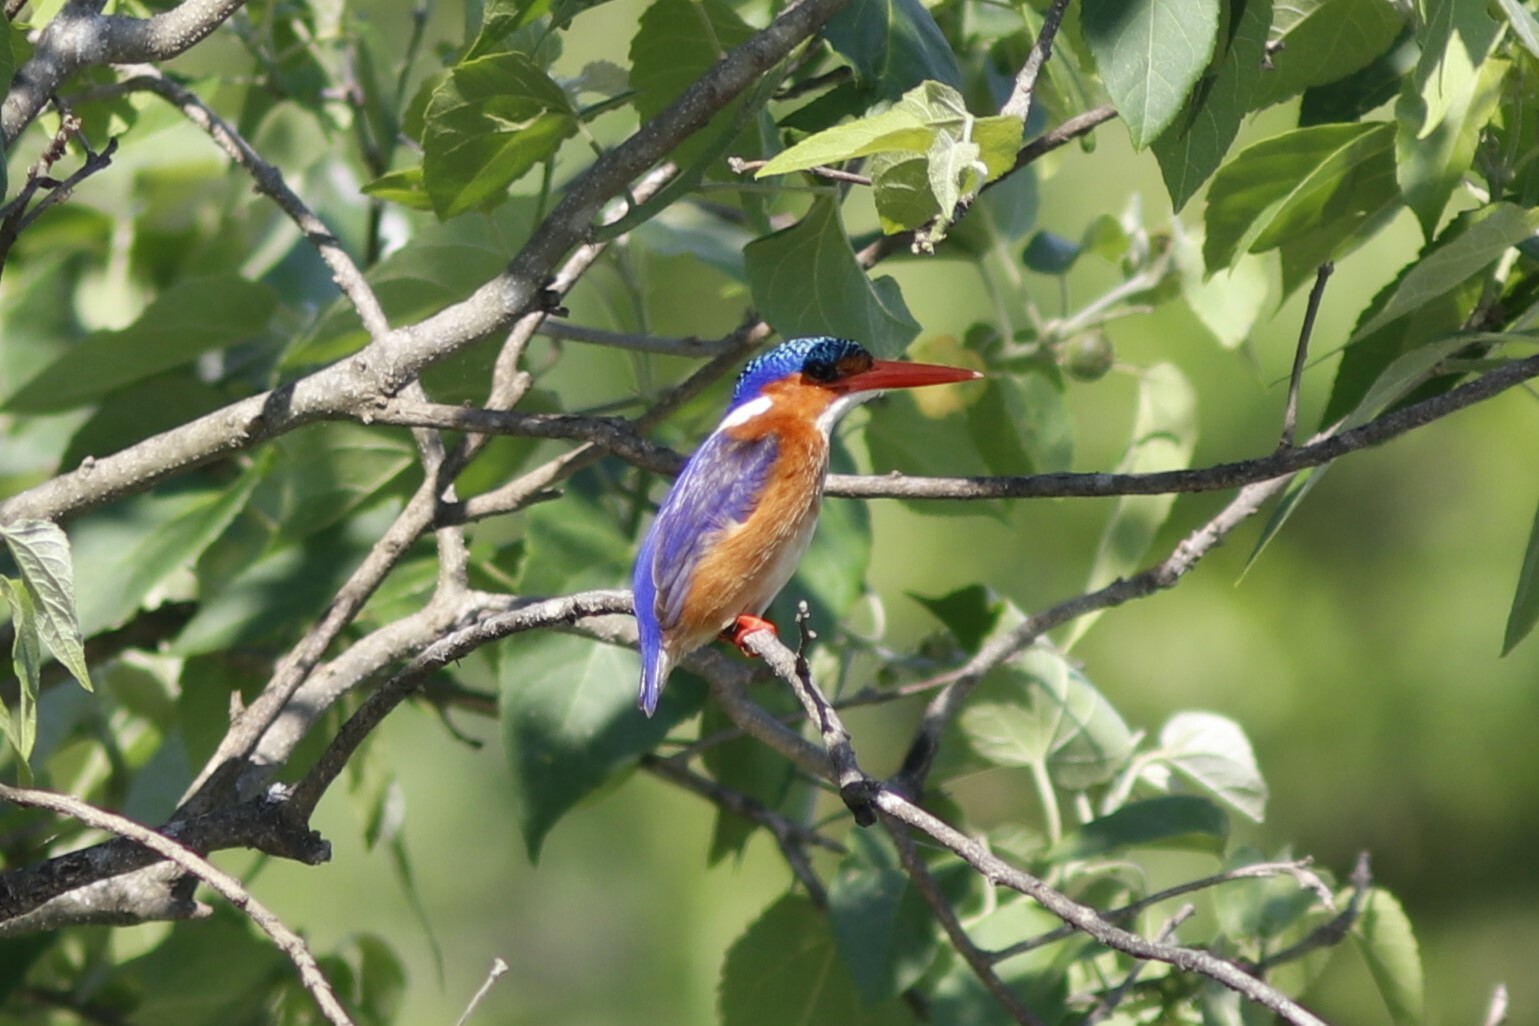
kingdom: Animalia
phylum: Chordata
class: Aves
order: Coraciiformes
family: Alcedinidae
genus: Corythornis
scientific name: Corythornis cristatus
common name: Malachite kingfisher
